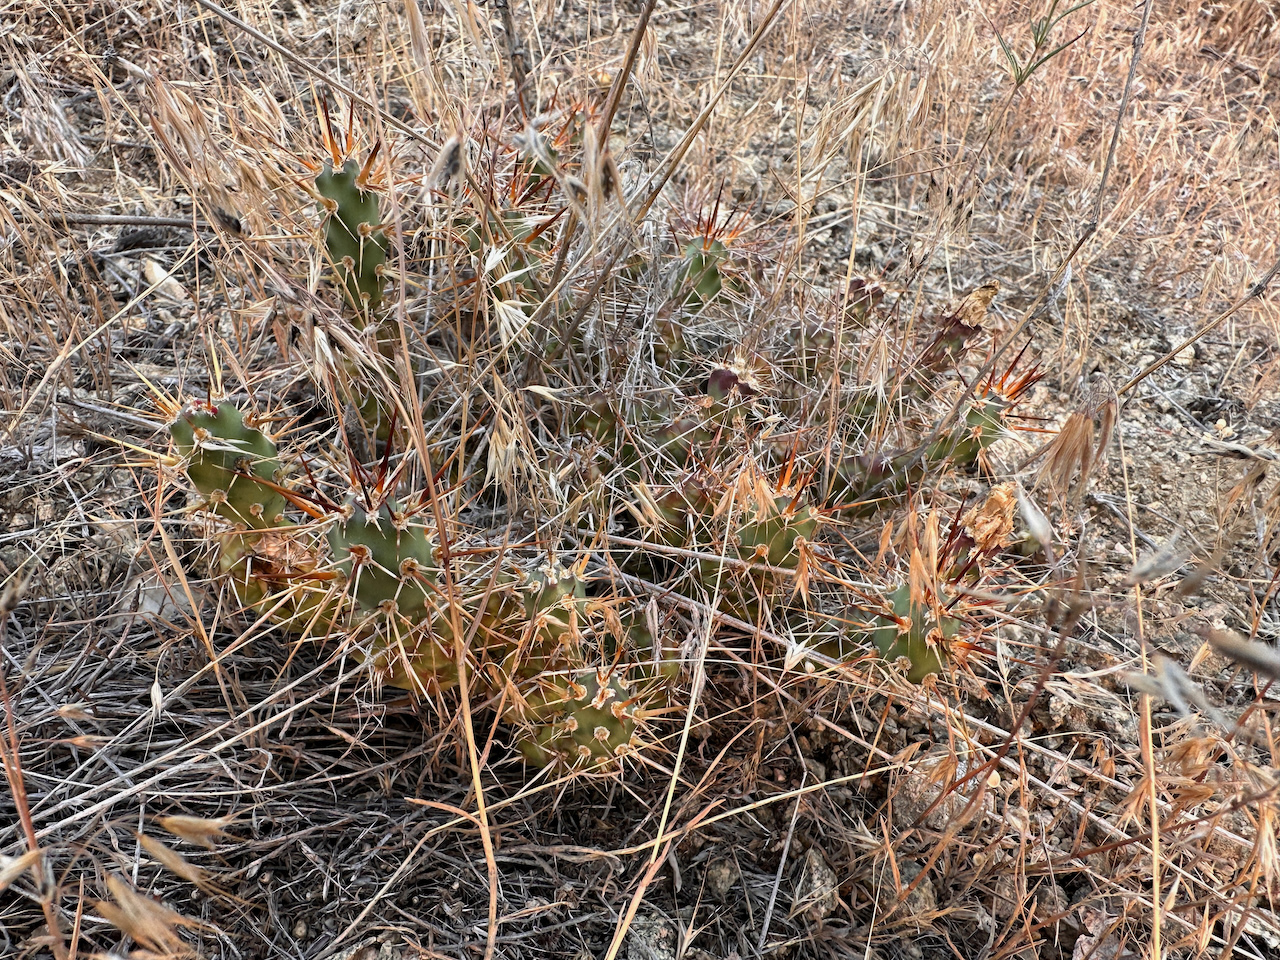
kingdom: Plantae
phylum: Tracheophyta
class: Magnoliopsida
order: Caryophyllales
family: Cactaceae
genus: Opuntia
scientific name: Opuntia fragilis
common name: Brittle cactus
